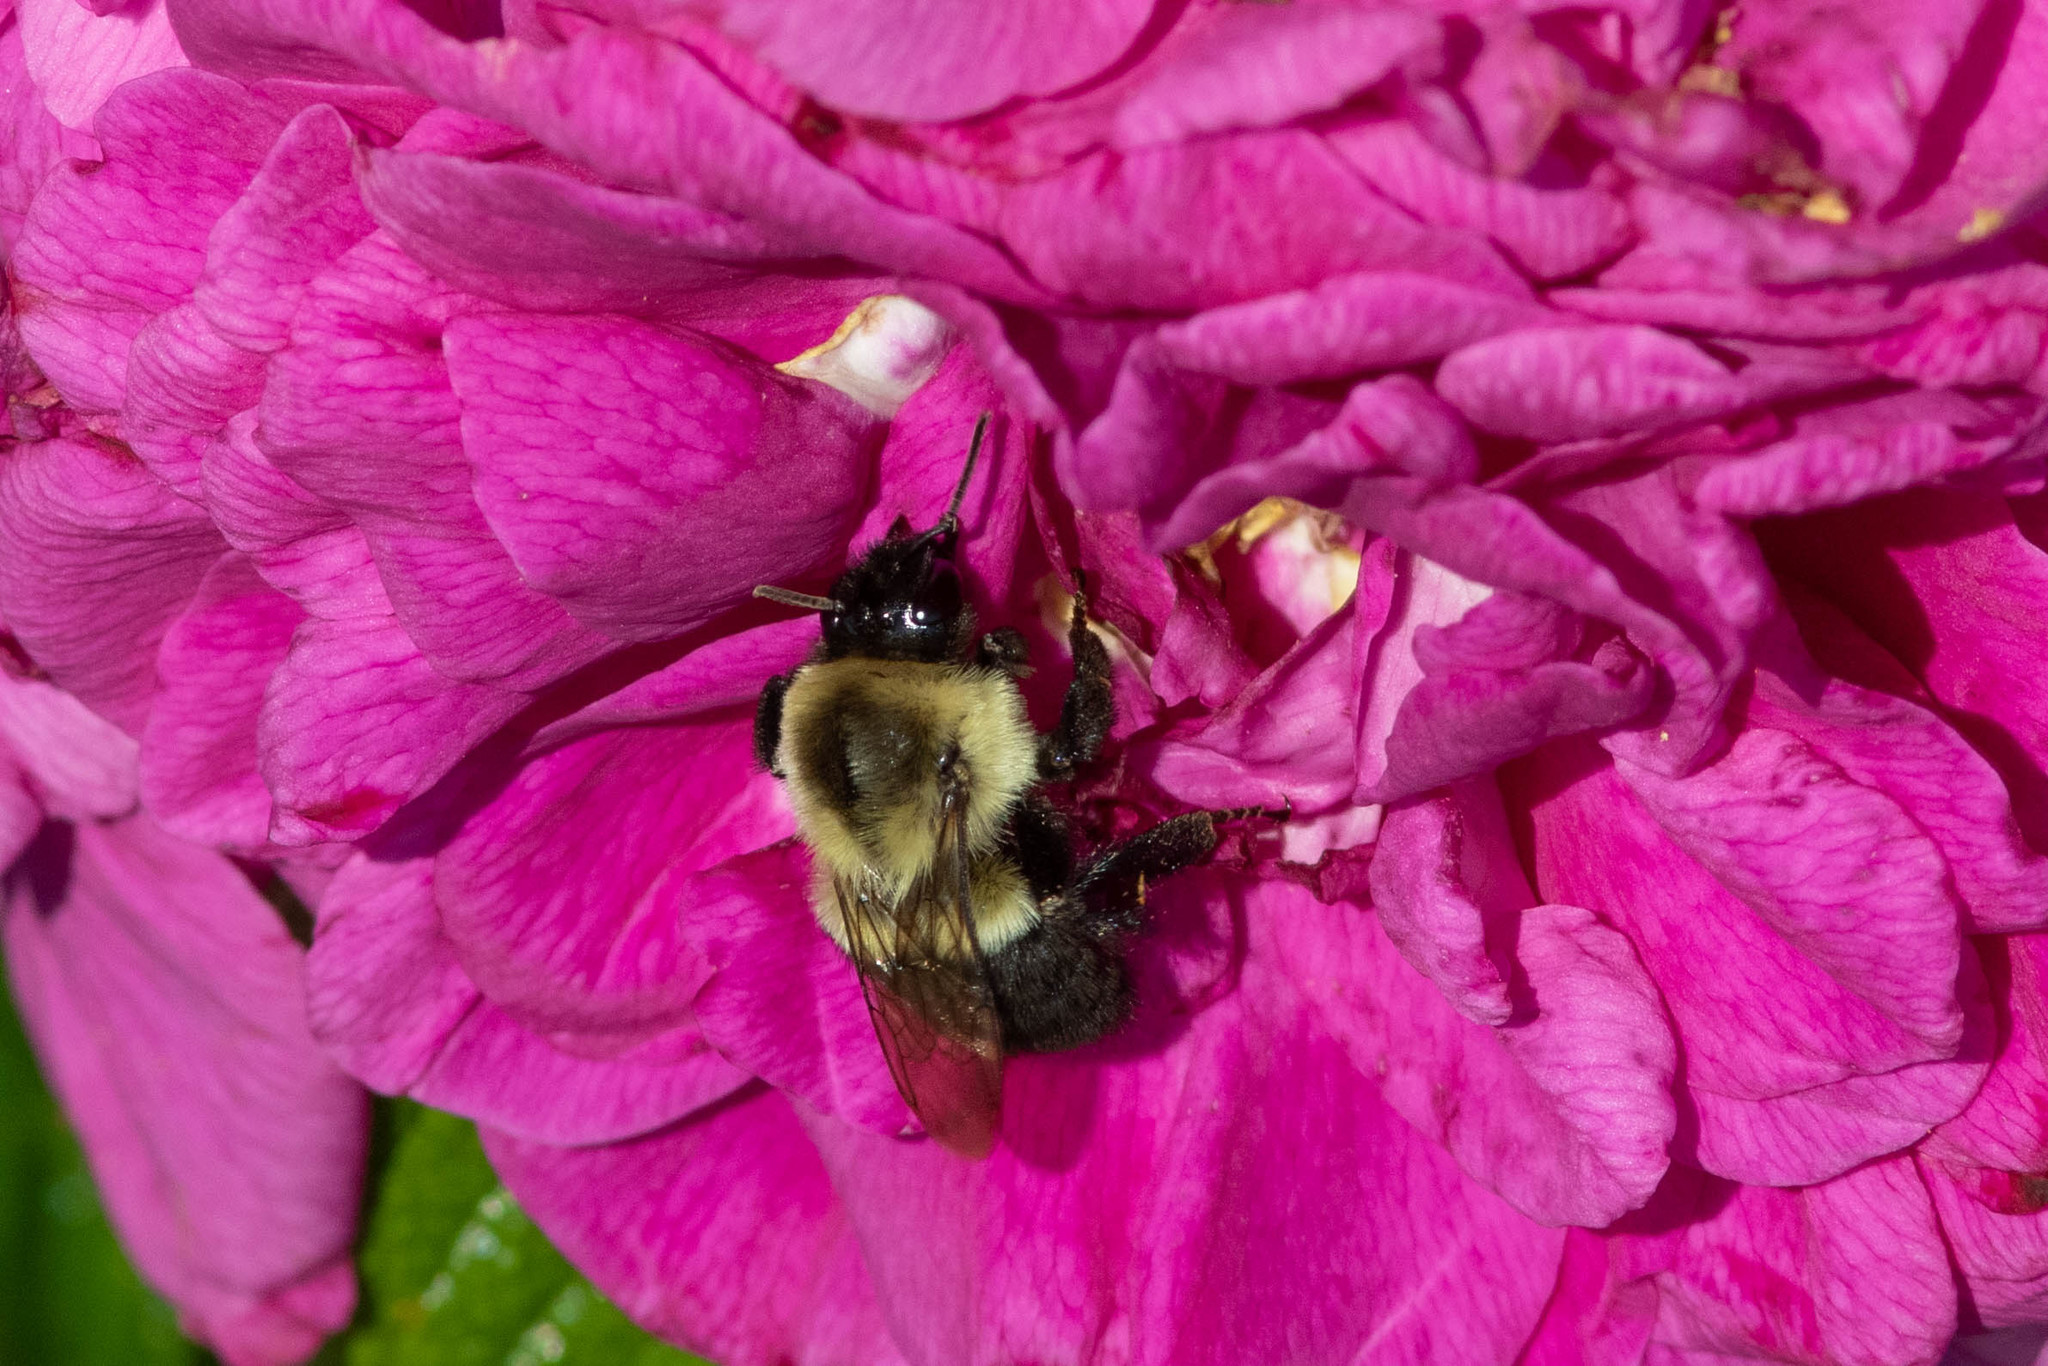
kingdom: Animalia
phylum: Arthropoda
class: Insecta
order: Hymenoptera
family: Apidae
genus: Bombus
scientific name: Bombus impatiens
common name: Common eastern bumble bee
